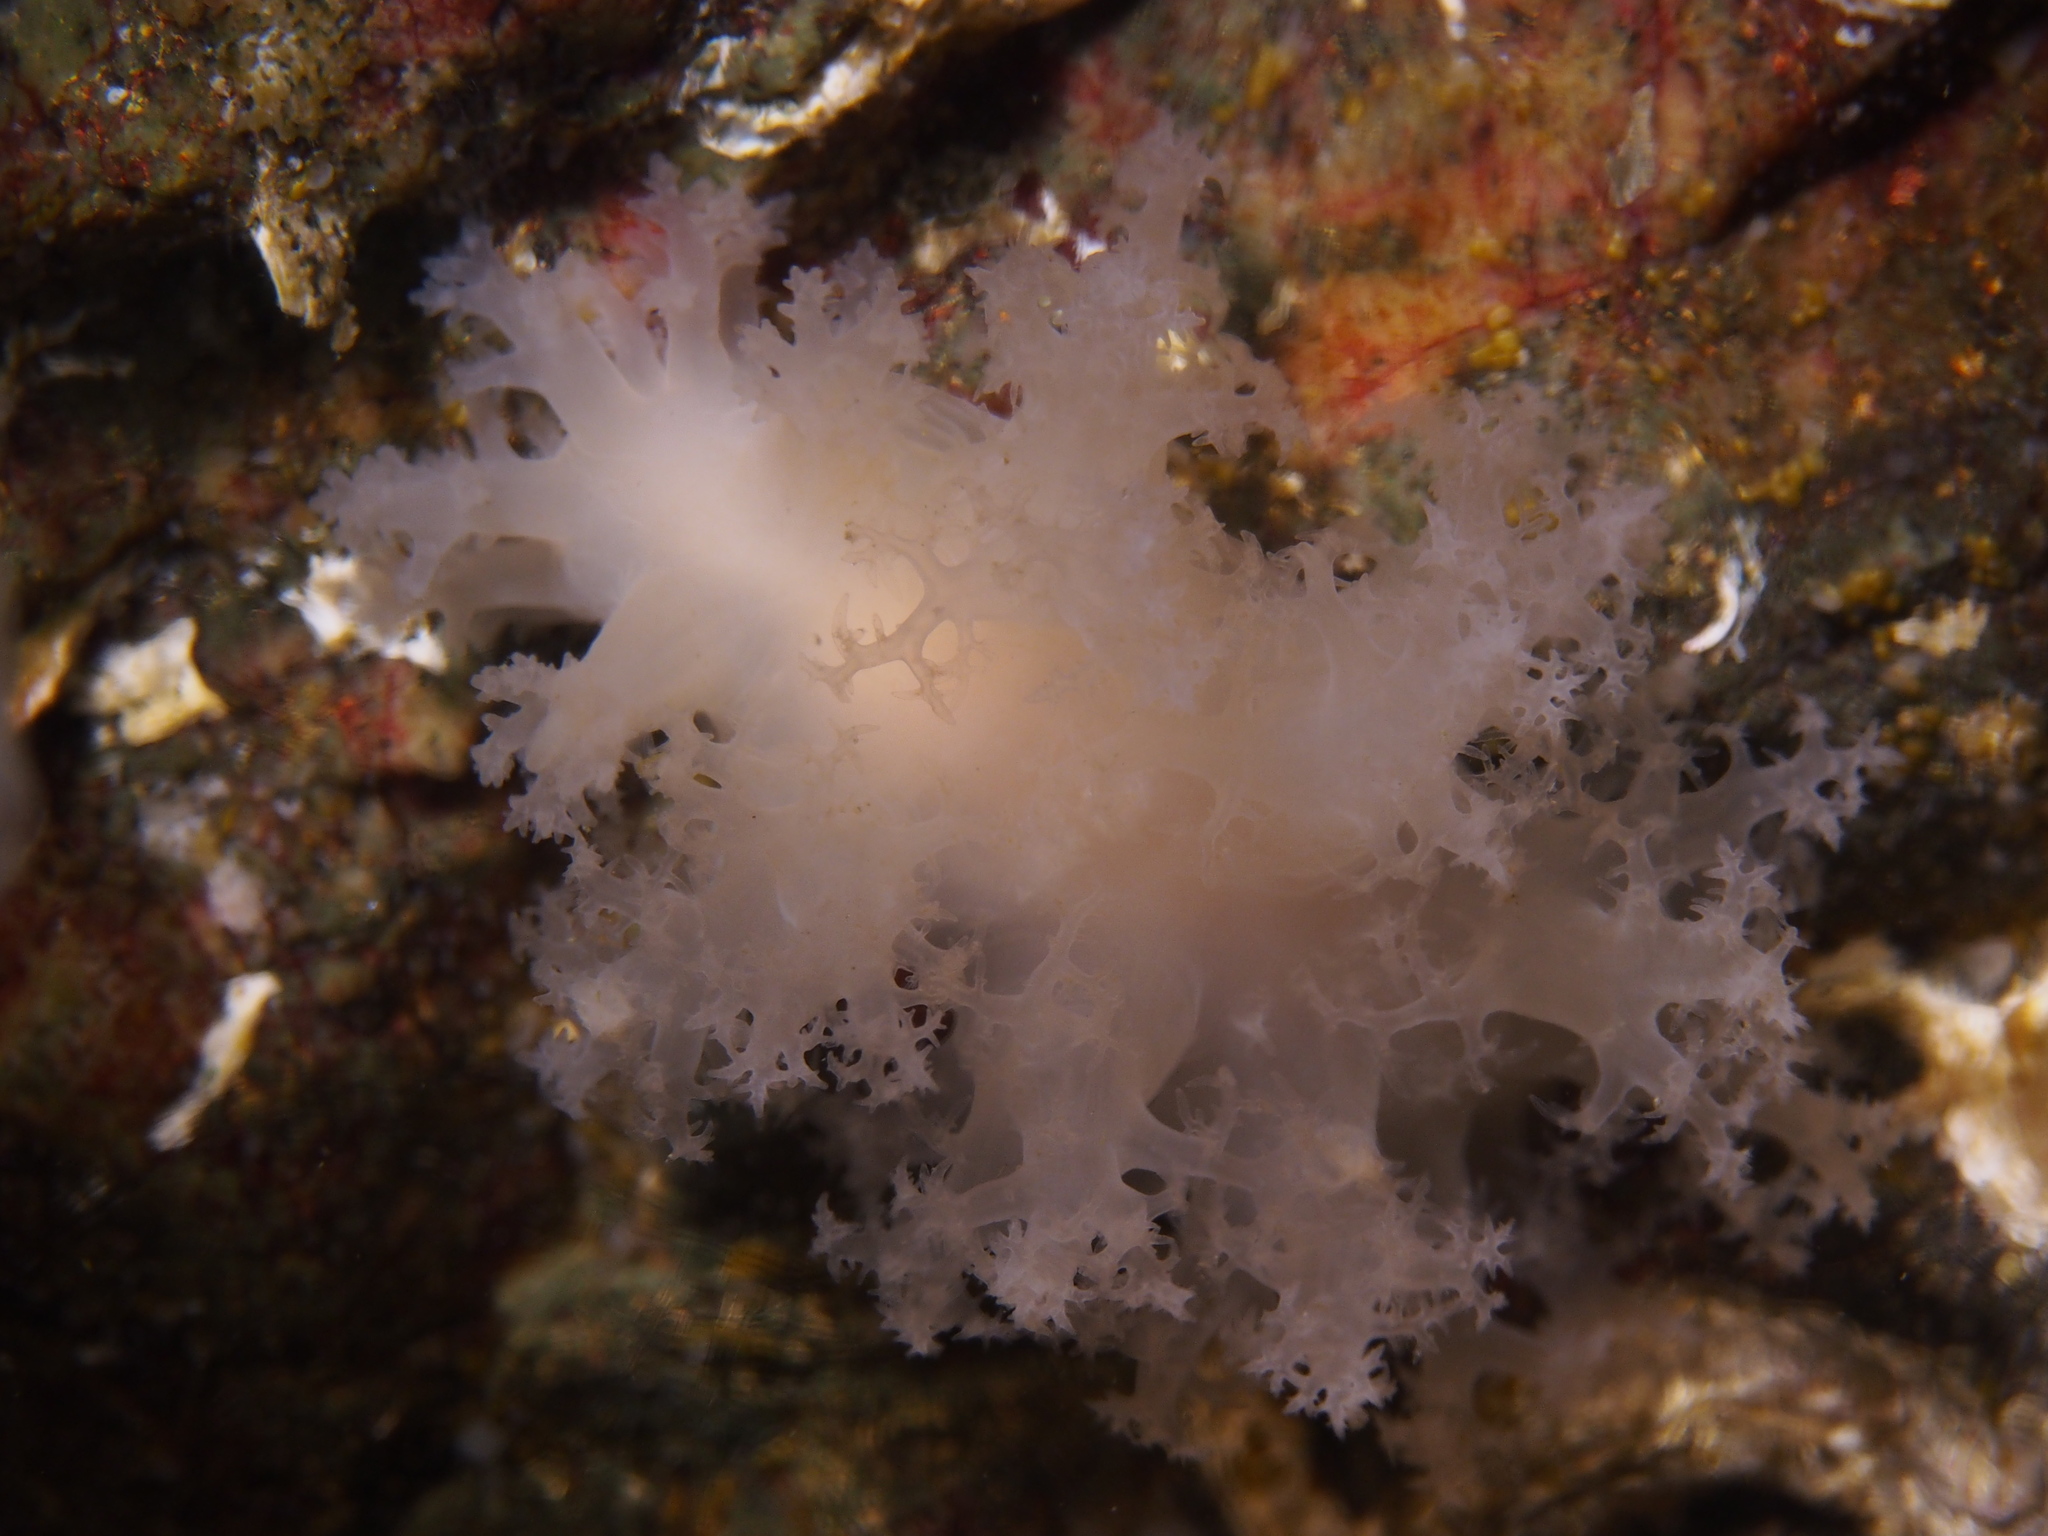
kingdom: Animalia
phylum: Mollusca
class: Gastropoda
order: Nudibranchia
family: Dendronotidae
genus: Dendronotus
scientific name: Dendronotus lacteus
